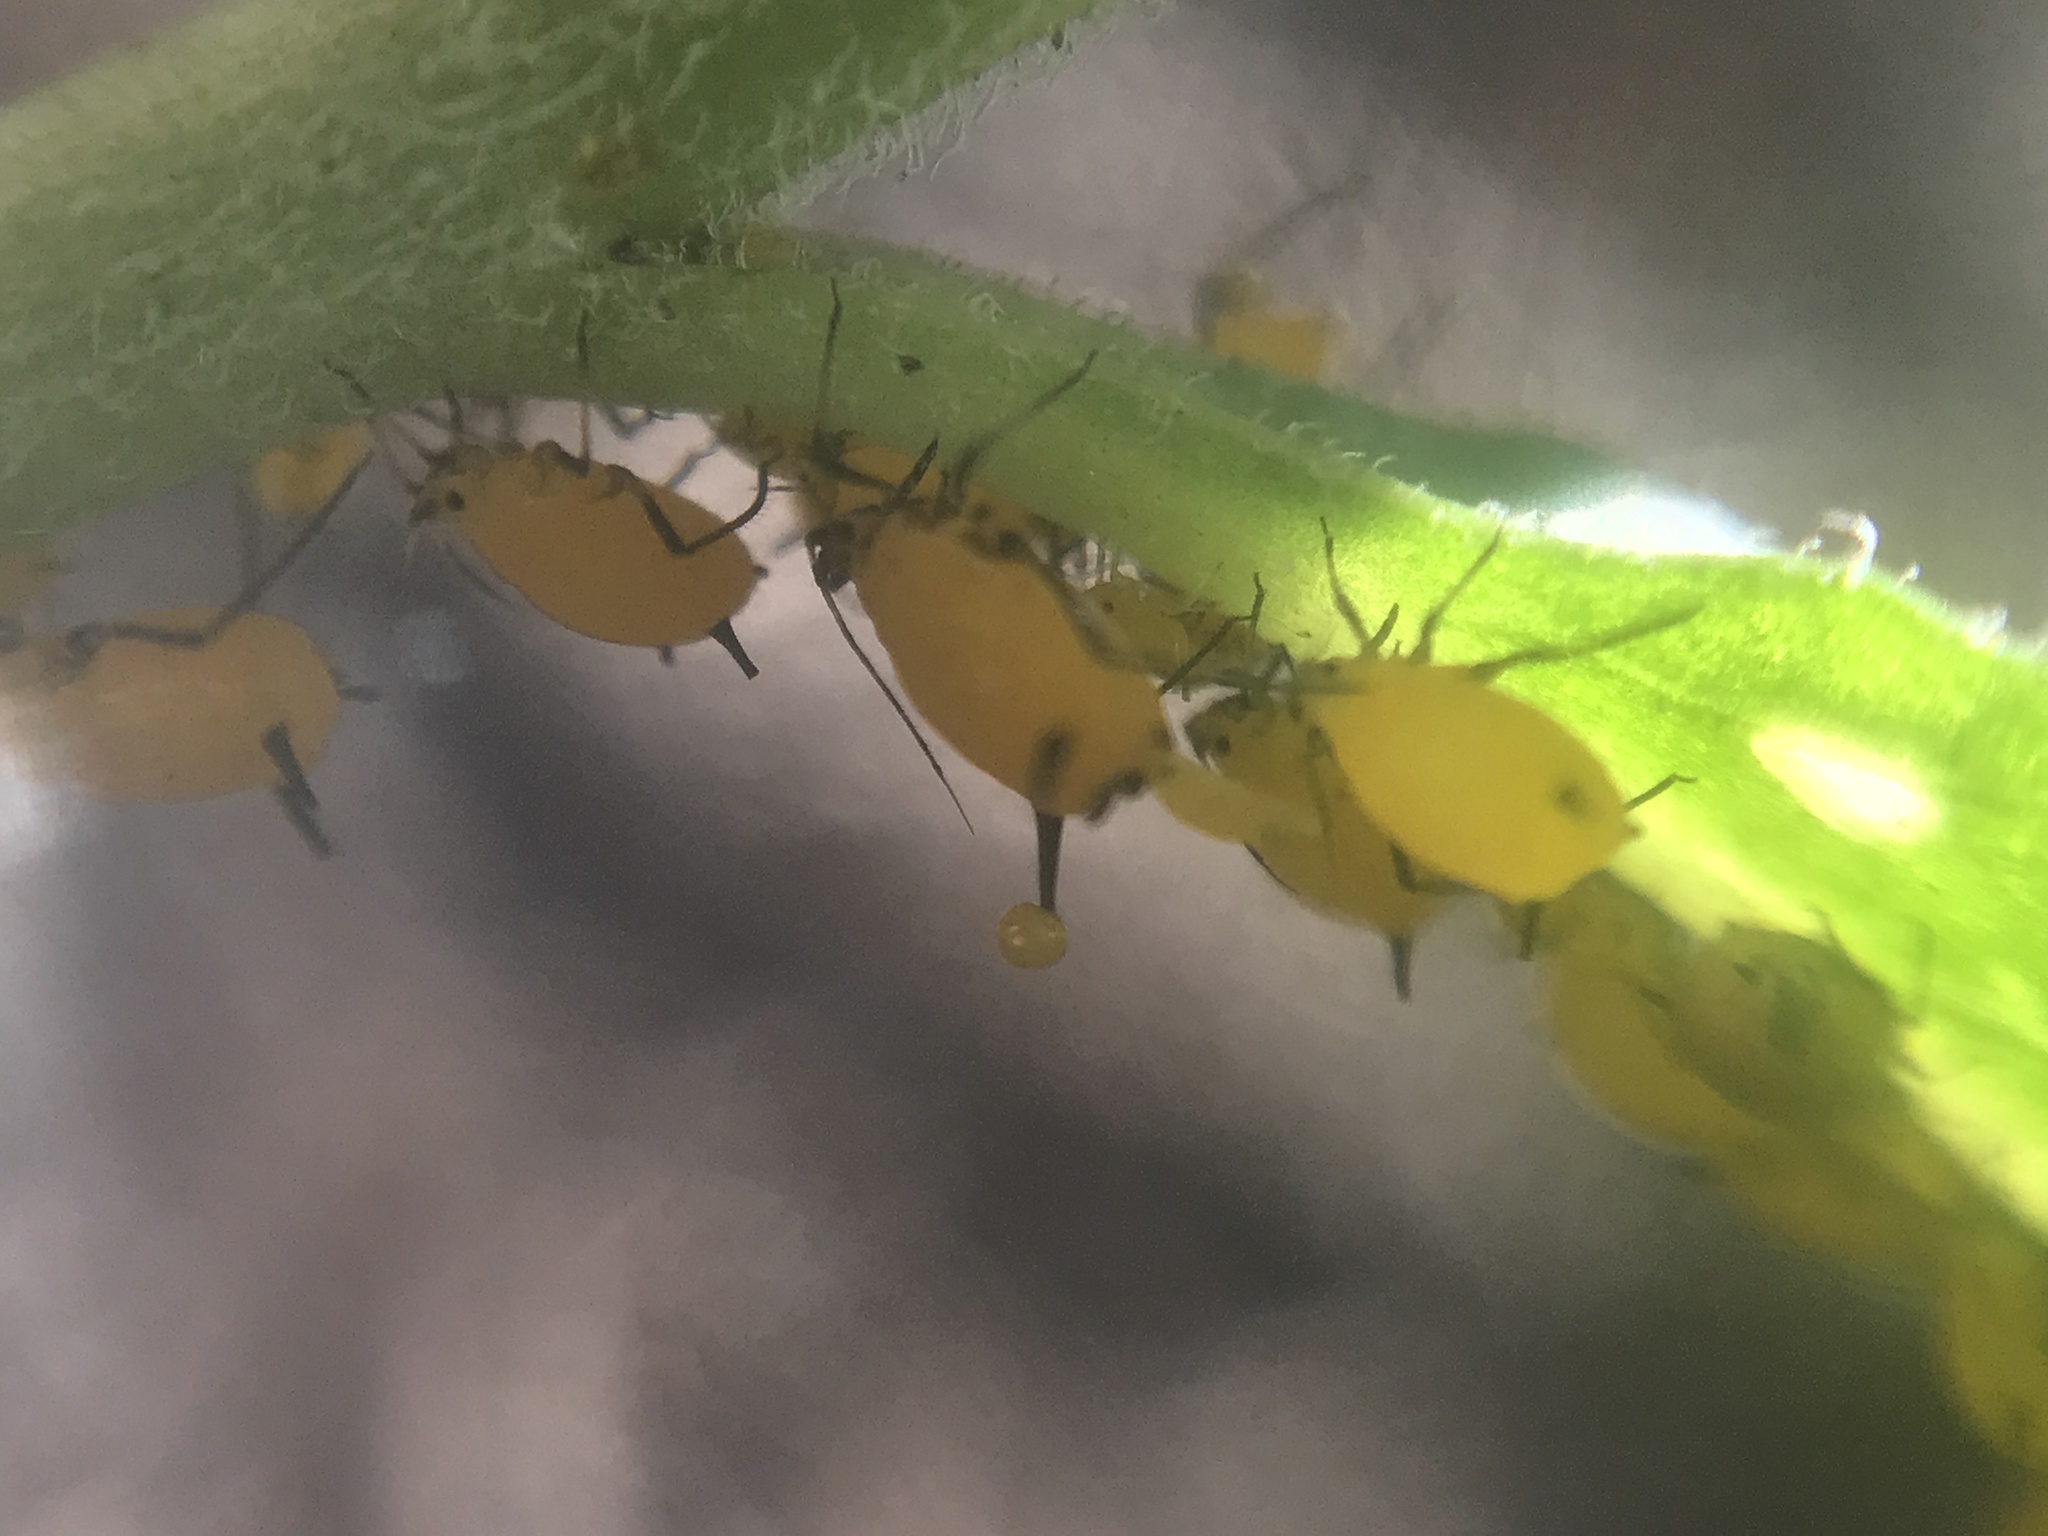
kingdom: Animalia
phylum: Arthropoda
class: Insecta
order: Hemiptera
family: Aphididae
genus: Aphis
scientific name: Aphis nerii
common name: Oleander aphid
